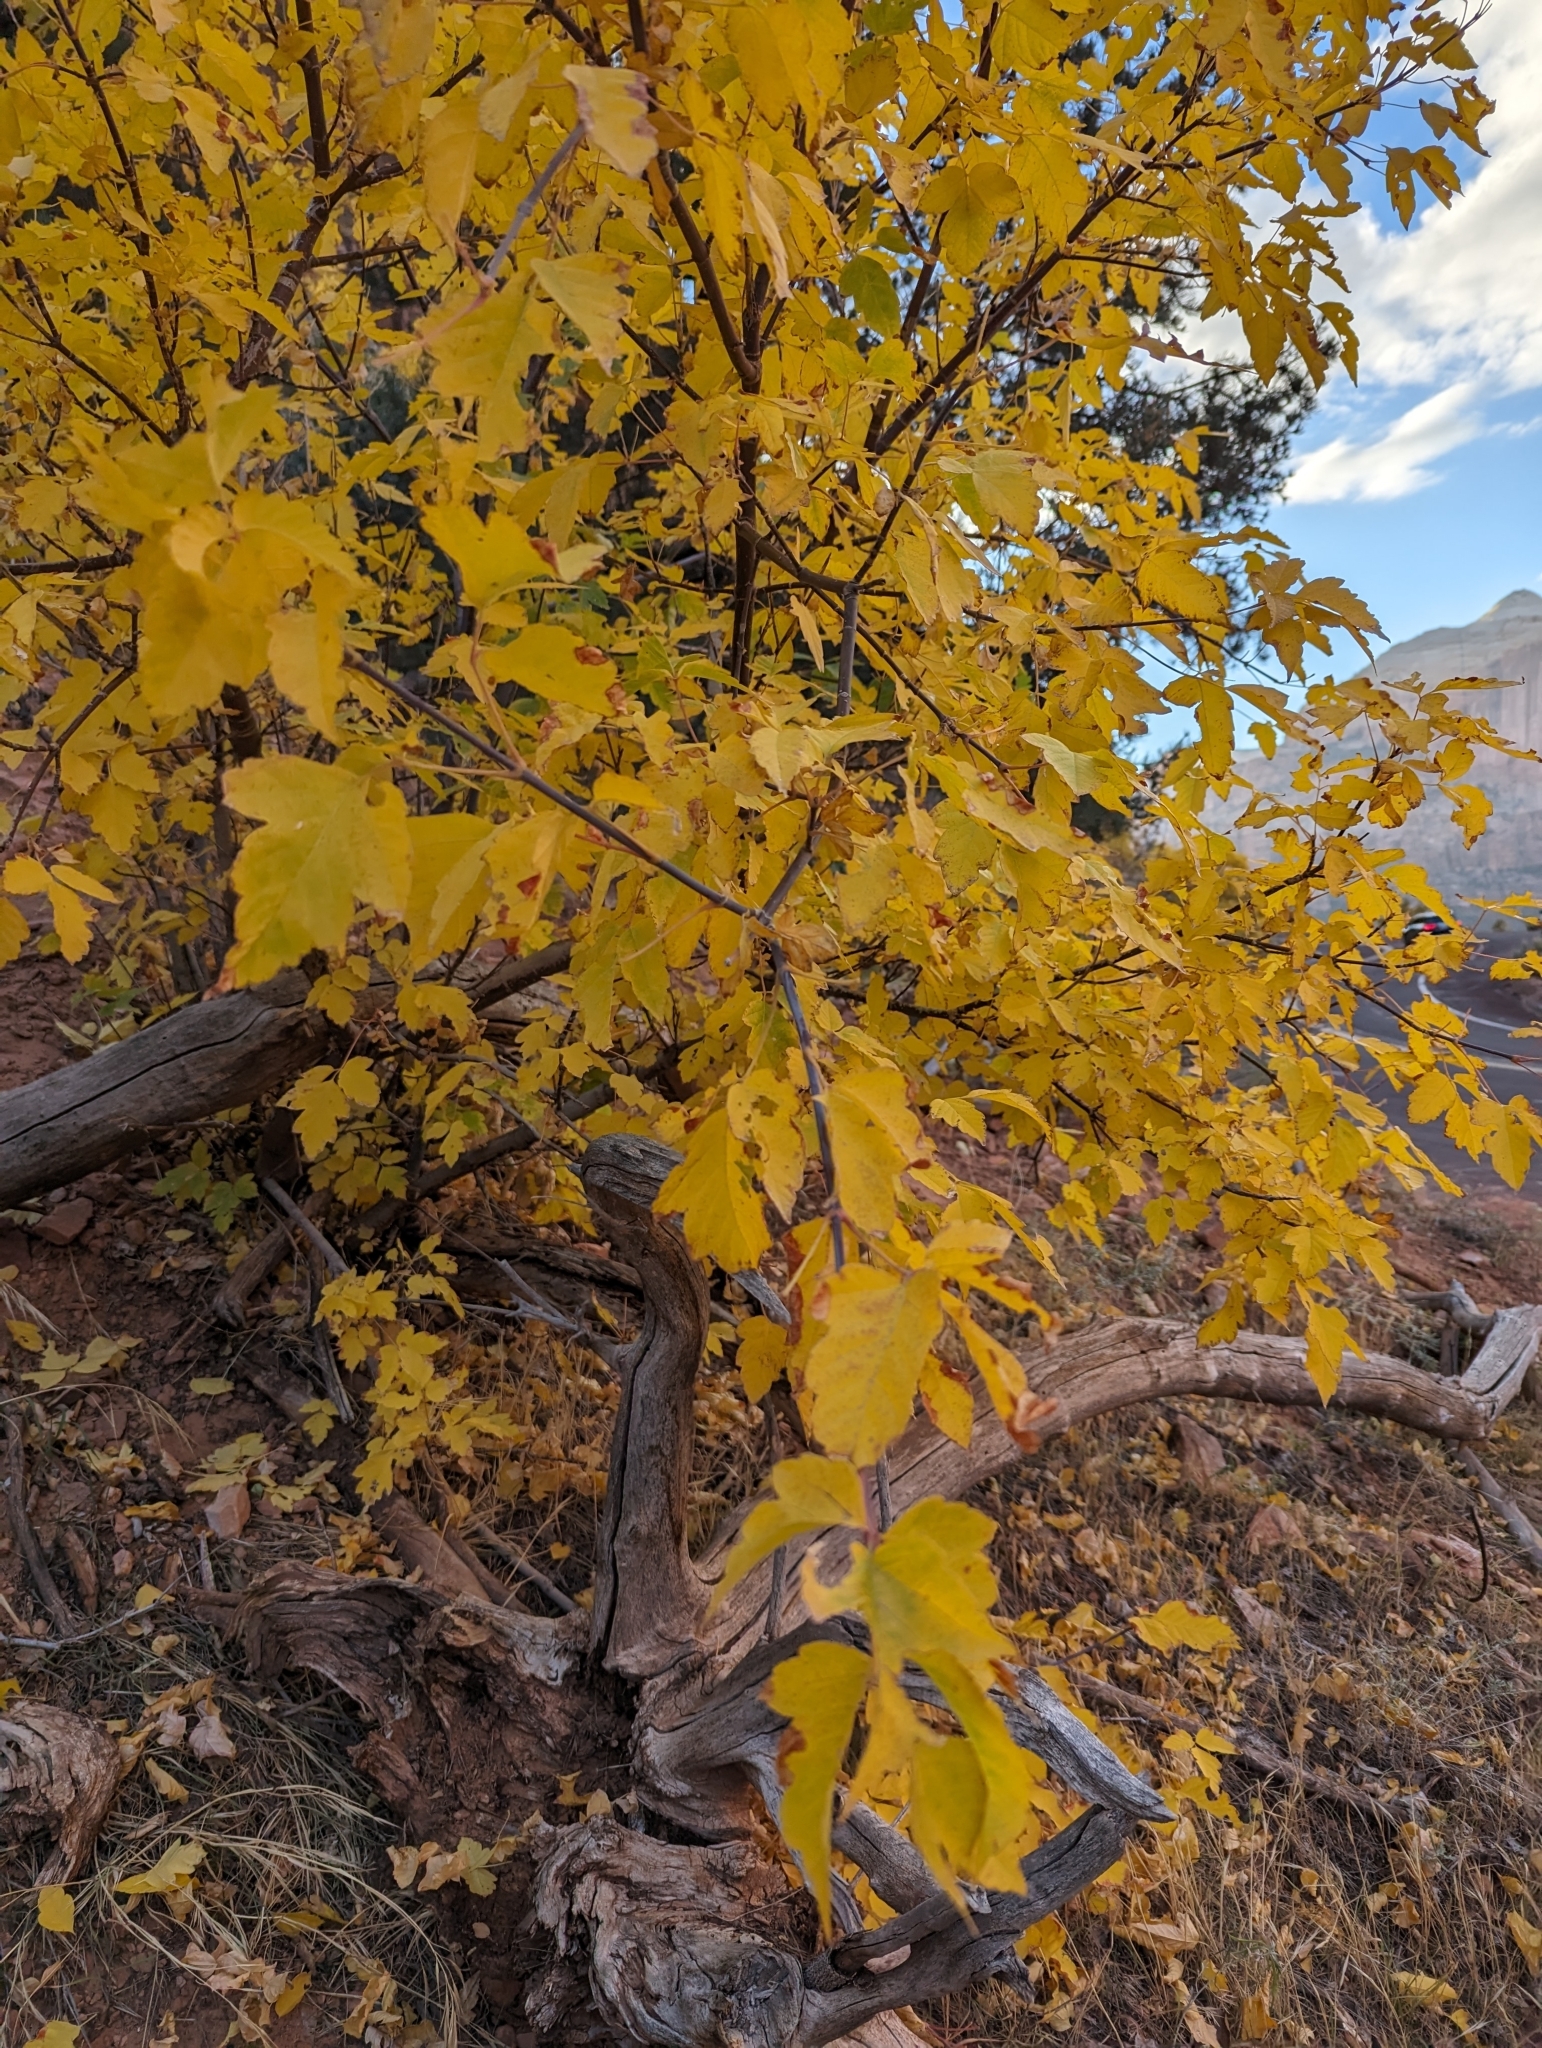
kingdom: Plantae
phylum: Tracheophyta
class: Magnoliopsida
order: Sapindales
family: Sapindaceae
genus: Acer
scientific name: Acer negundo
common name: Ashleaf maple
